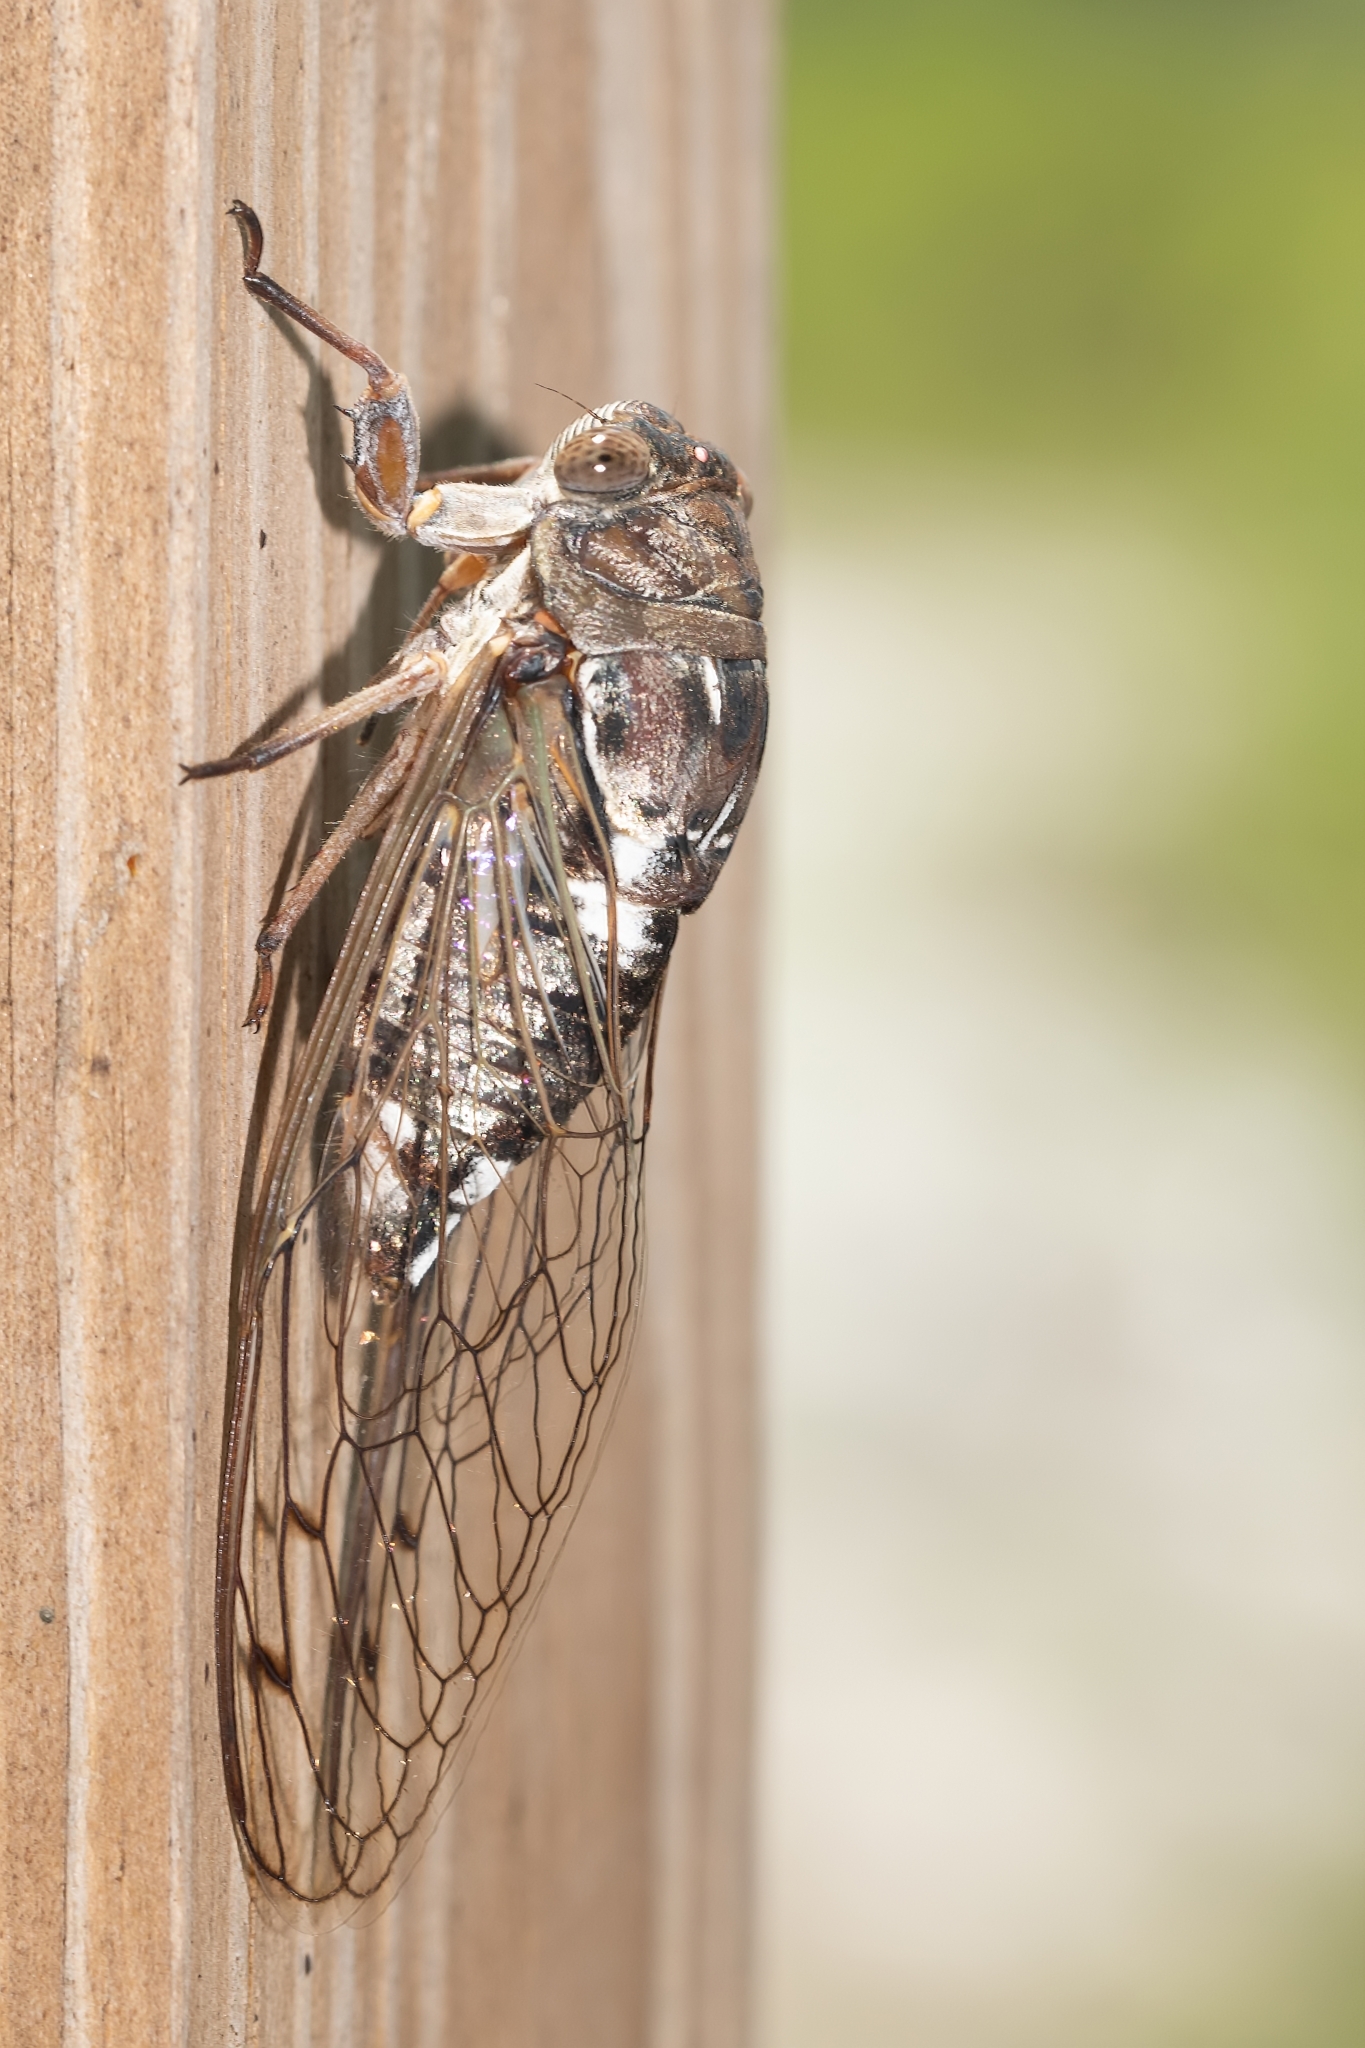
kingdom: Animalia
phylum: Arthropoda
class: Insecta
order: Hemiptera
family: Cicadidae
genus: Megatibicen
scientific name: Megatibicen resonans
